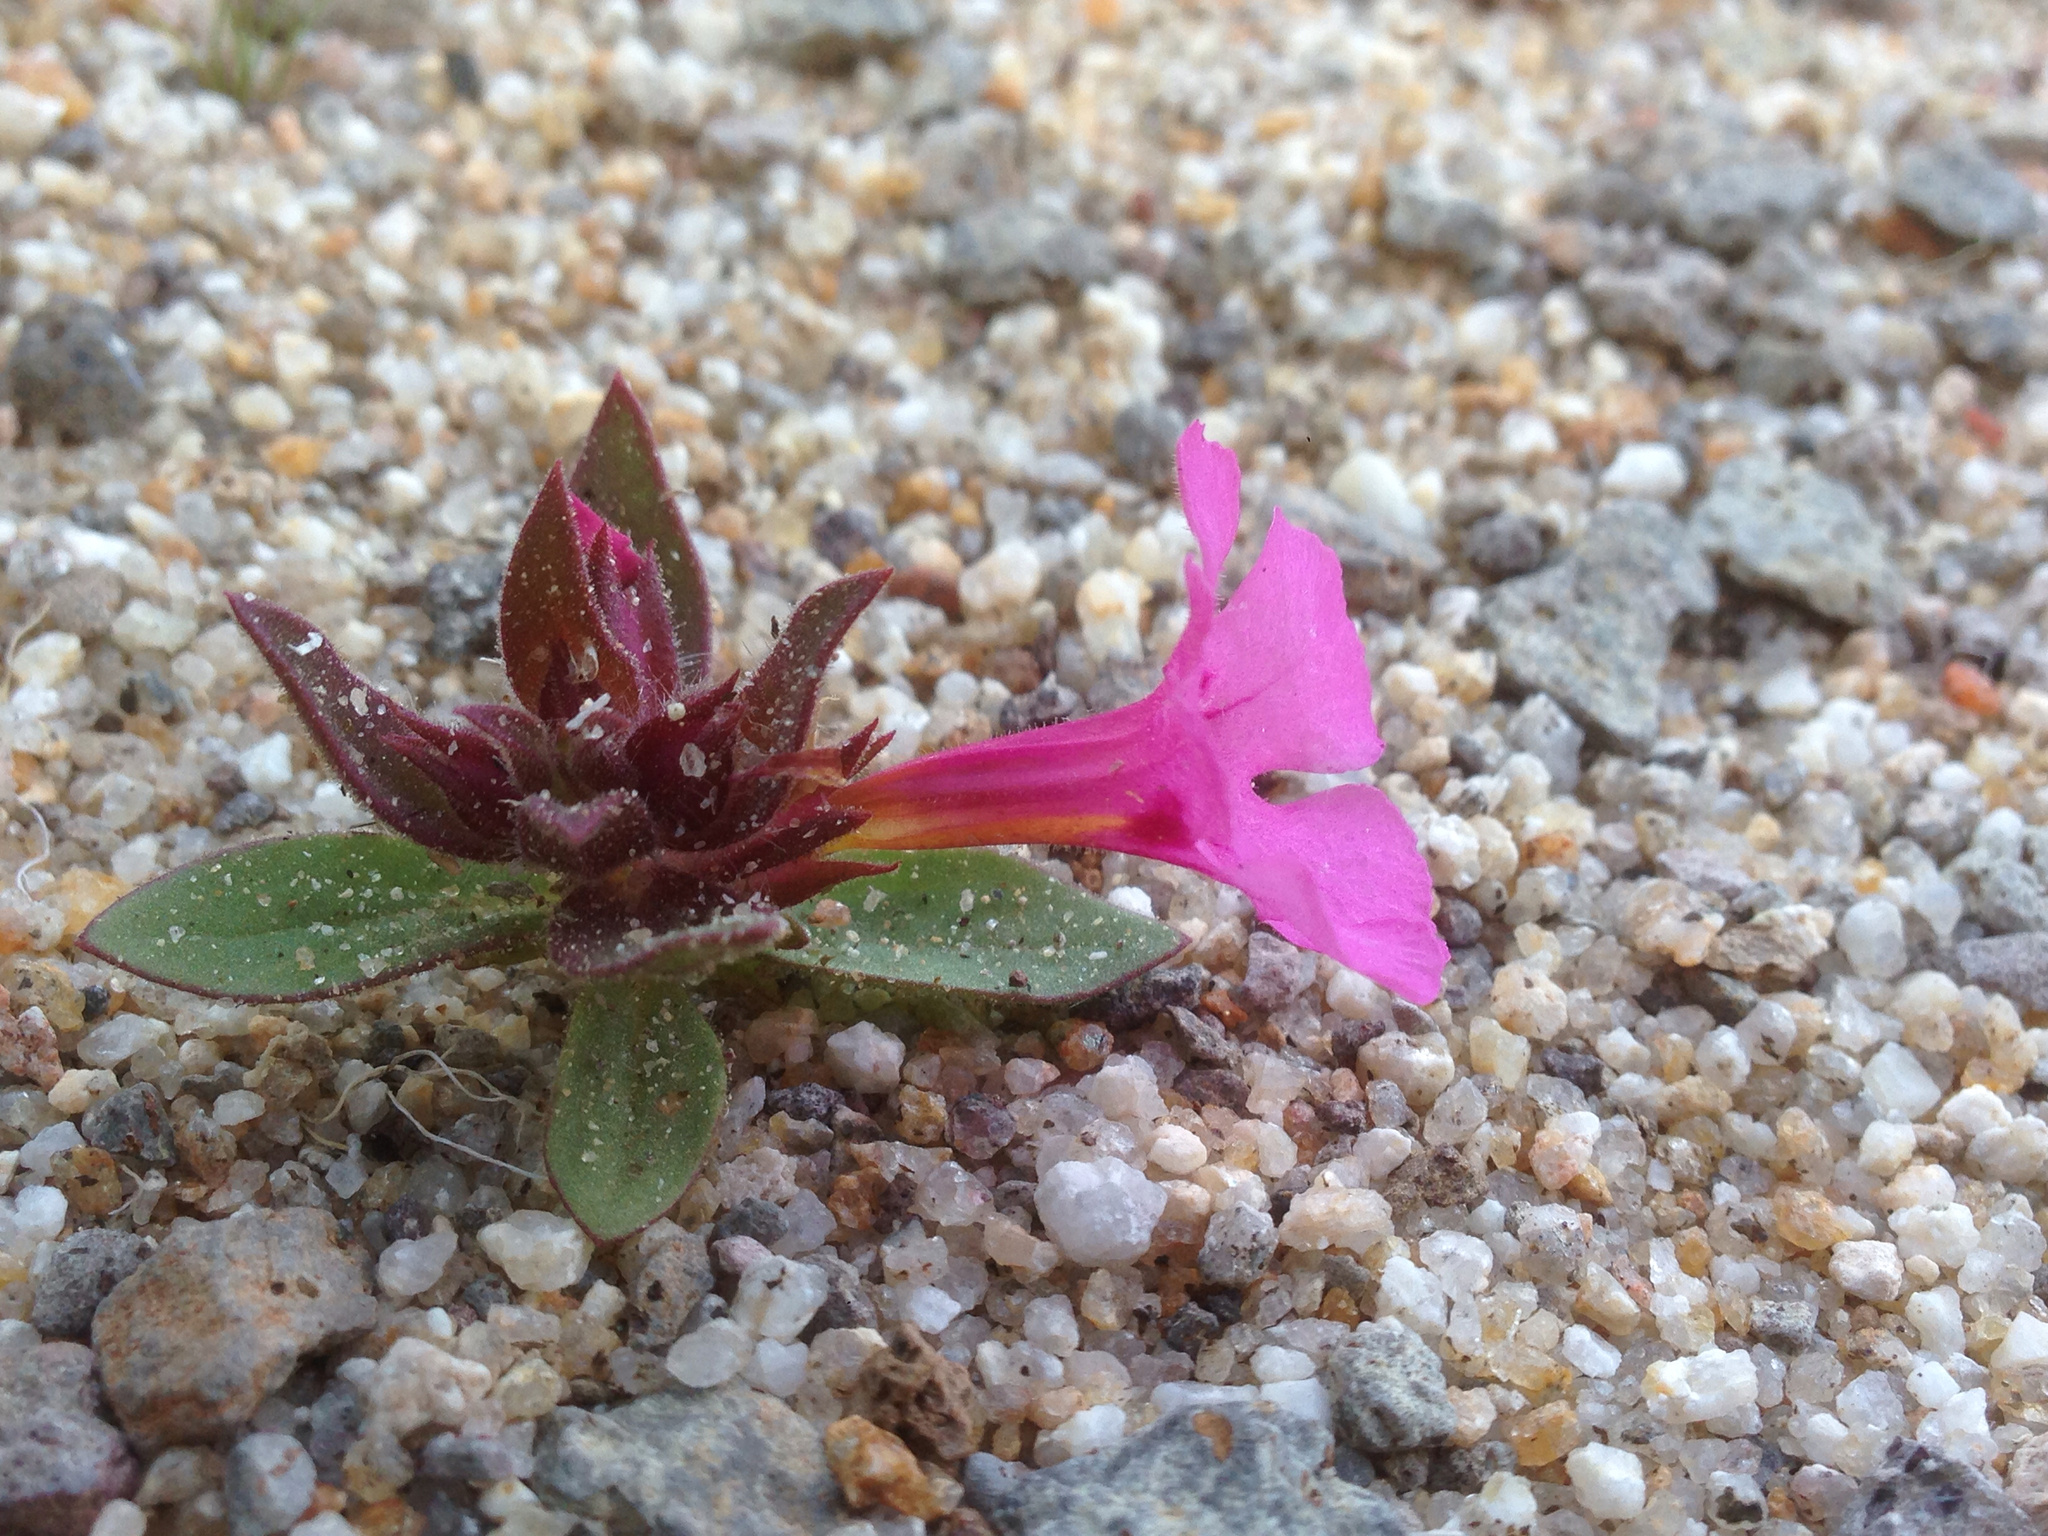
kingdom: Plantae
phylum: Tracheophyta
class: Magnoliopsida
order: Lamiales
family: Phrymaceae
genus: Diplacus
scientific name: Diplacus bigelovii
